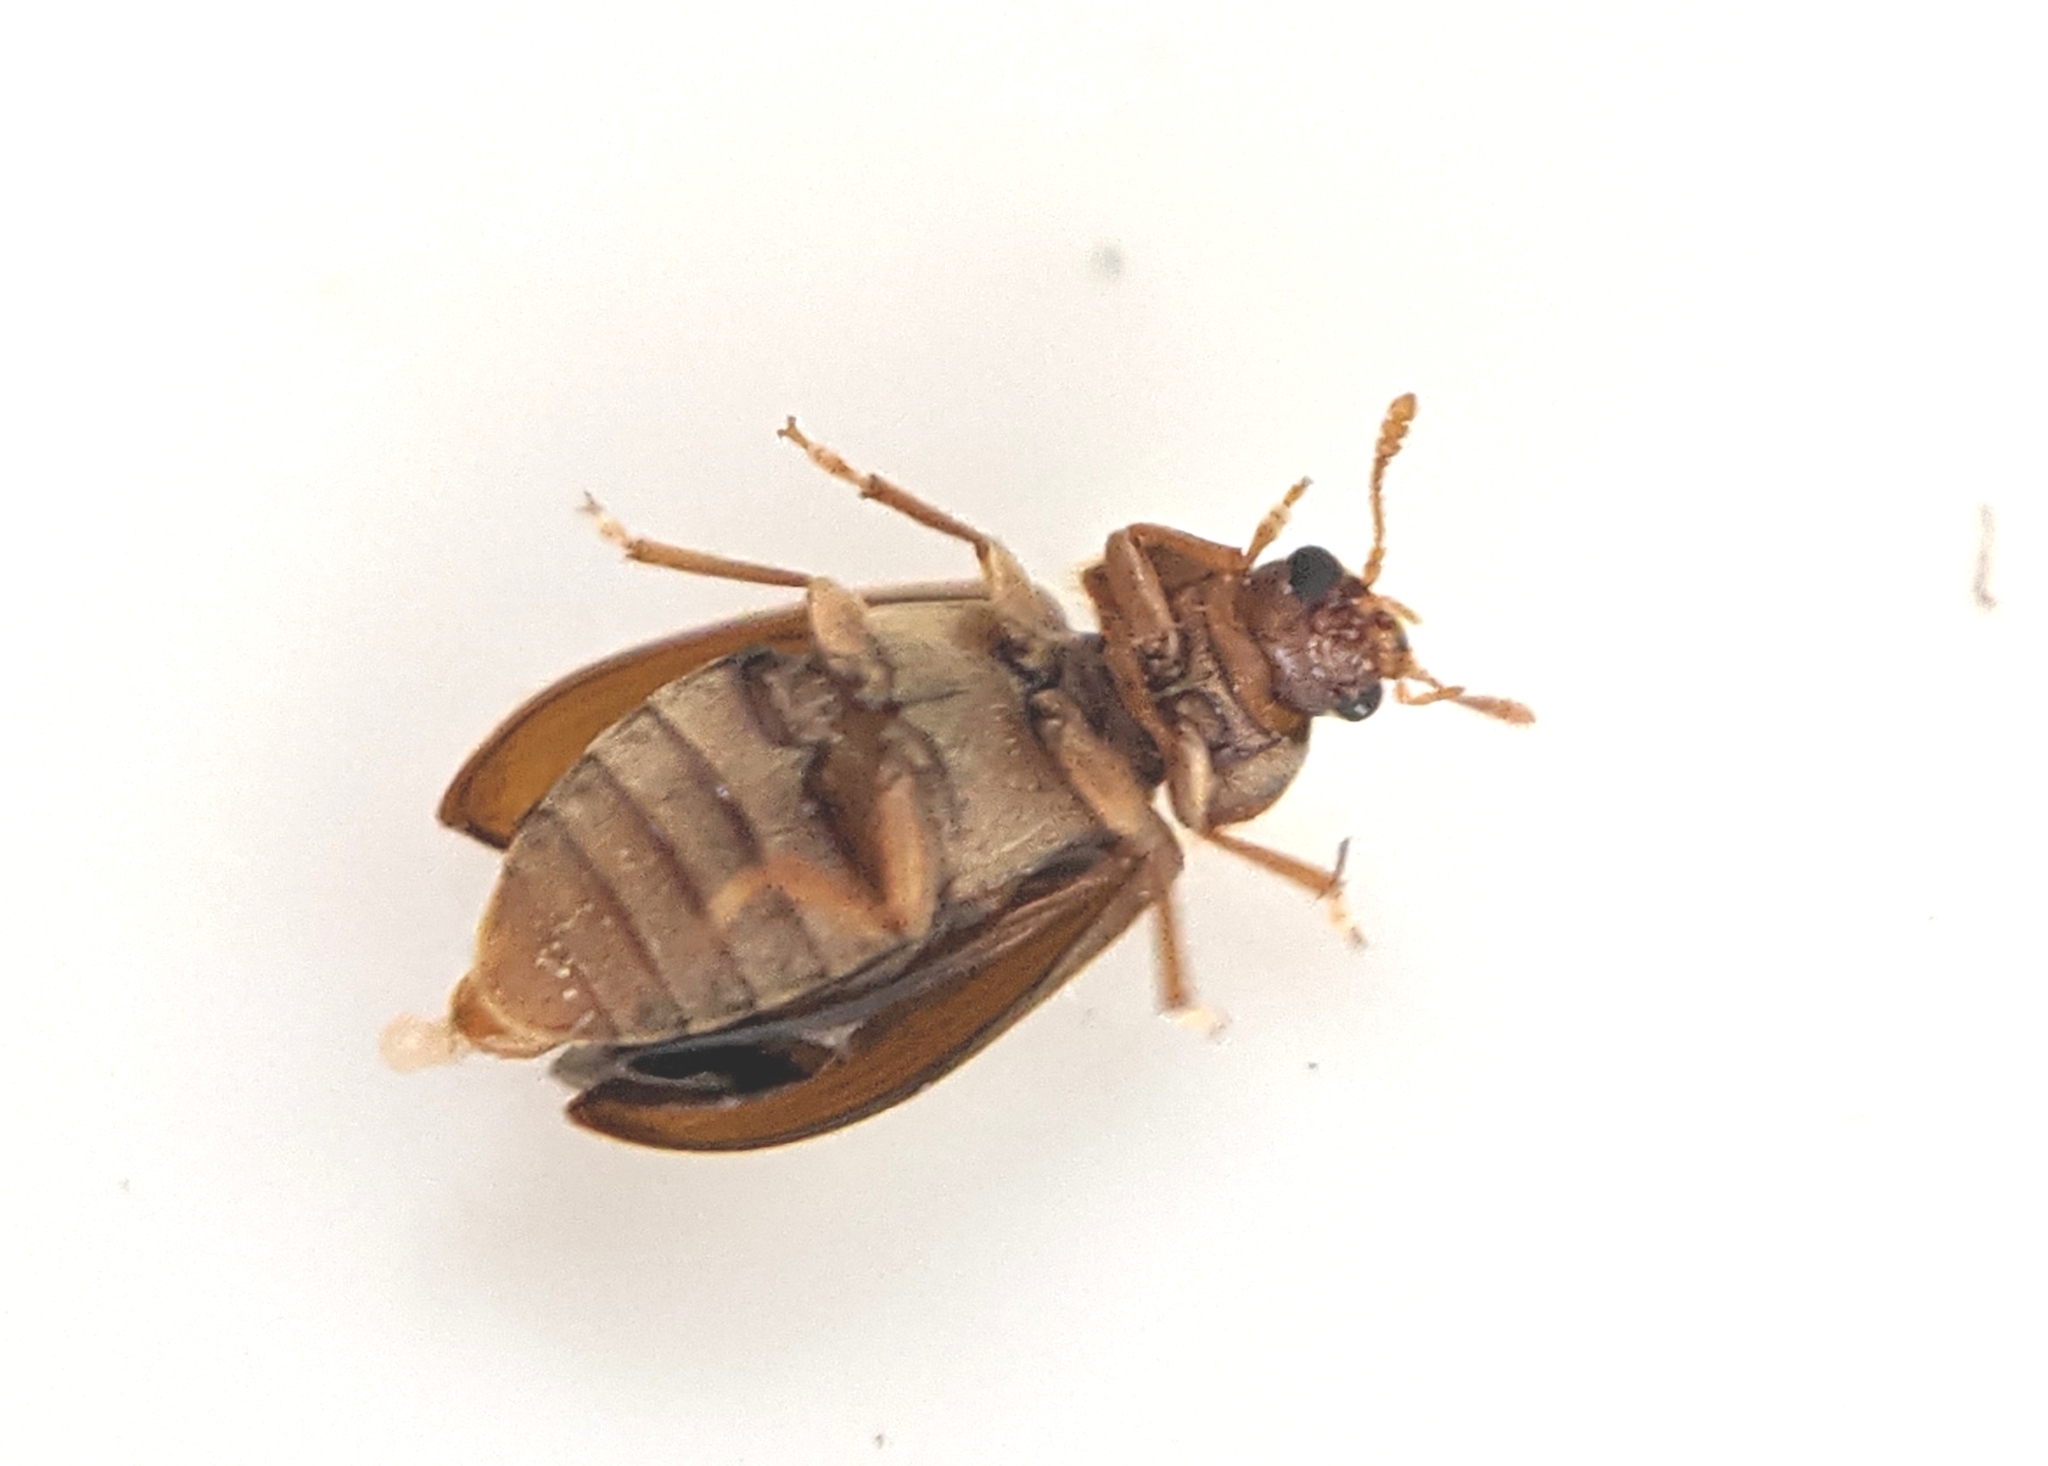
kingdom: Animalia
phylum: Arthropoda
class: Insecta
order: Coleoptera
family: Byturidae
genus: Byturus
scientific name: Byturus tomentosus
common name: Beetle
